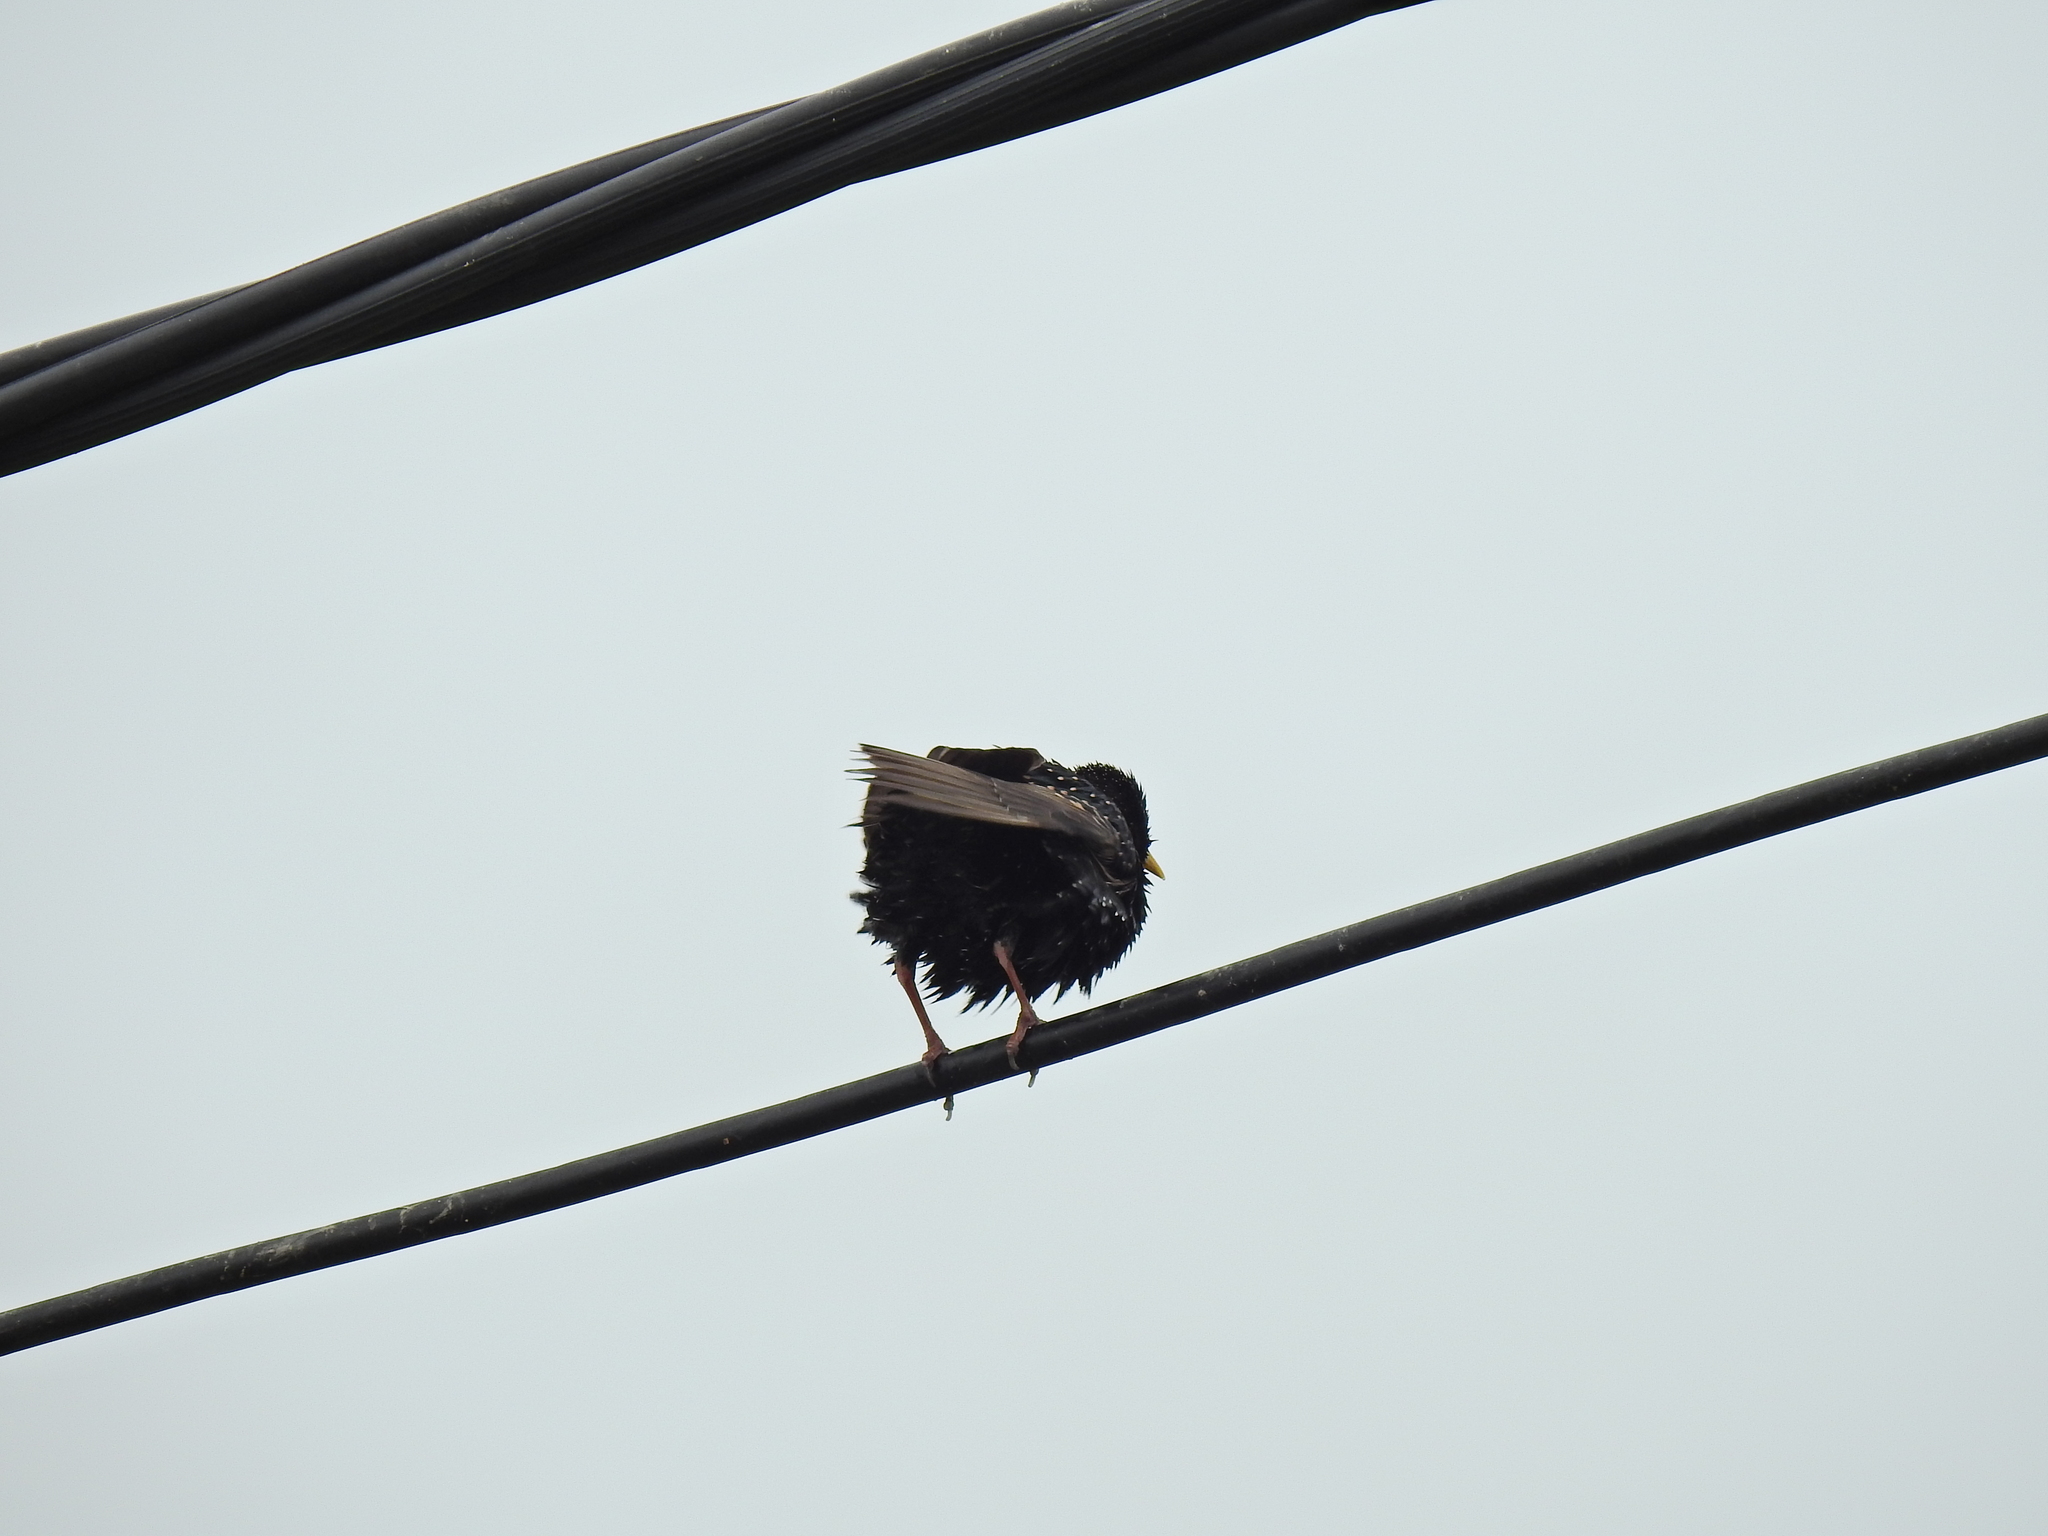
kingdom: Animalia
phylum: Chordata
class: Aves
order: Passeriformes
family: Sturnidae
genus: Sturnus
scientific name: Sturnus vulgaris
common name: Common starling
